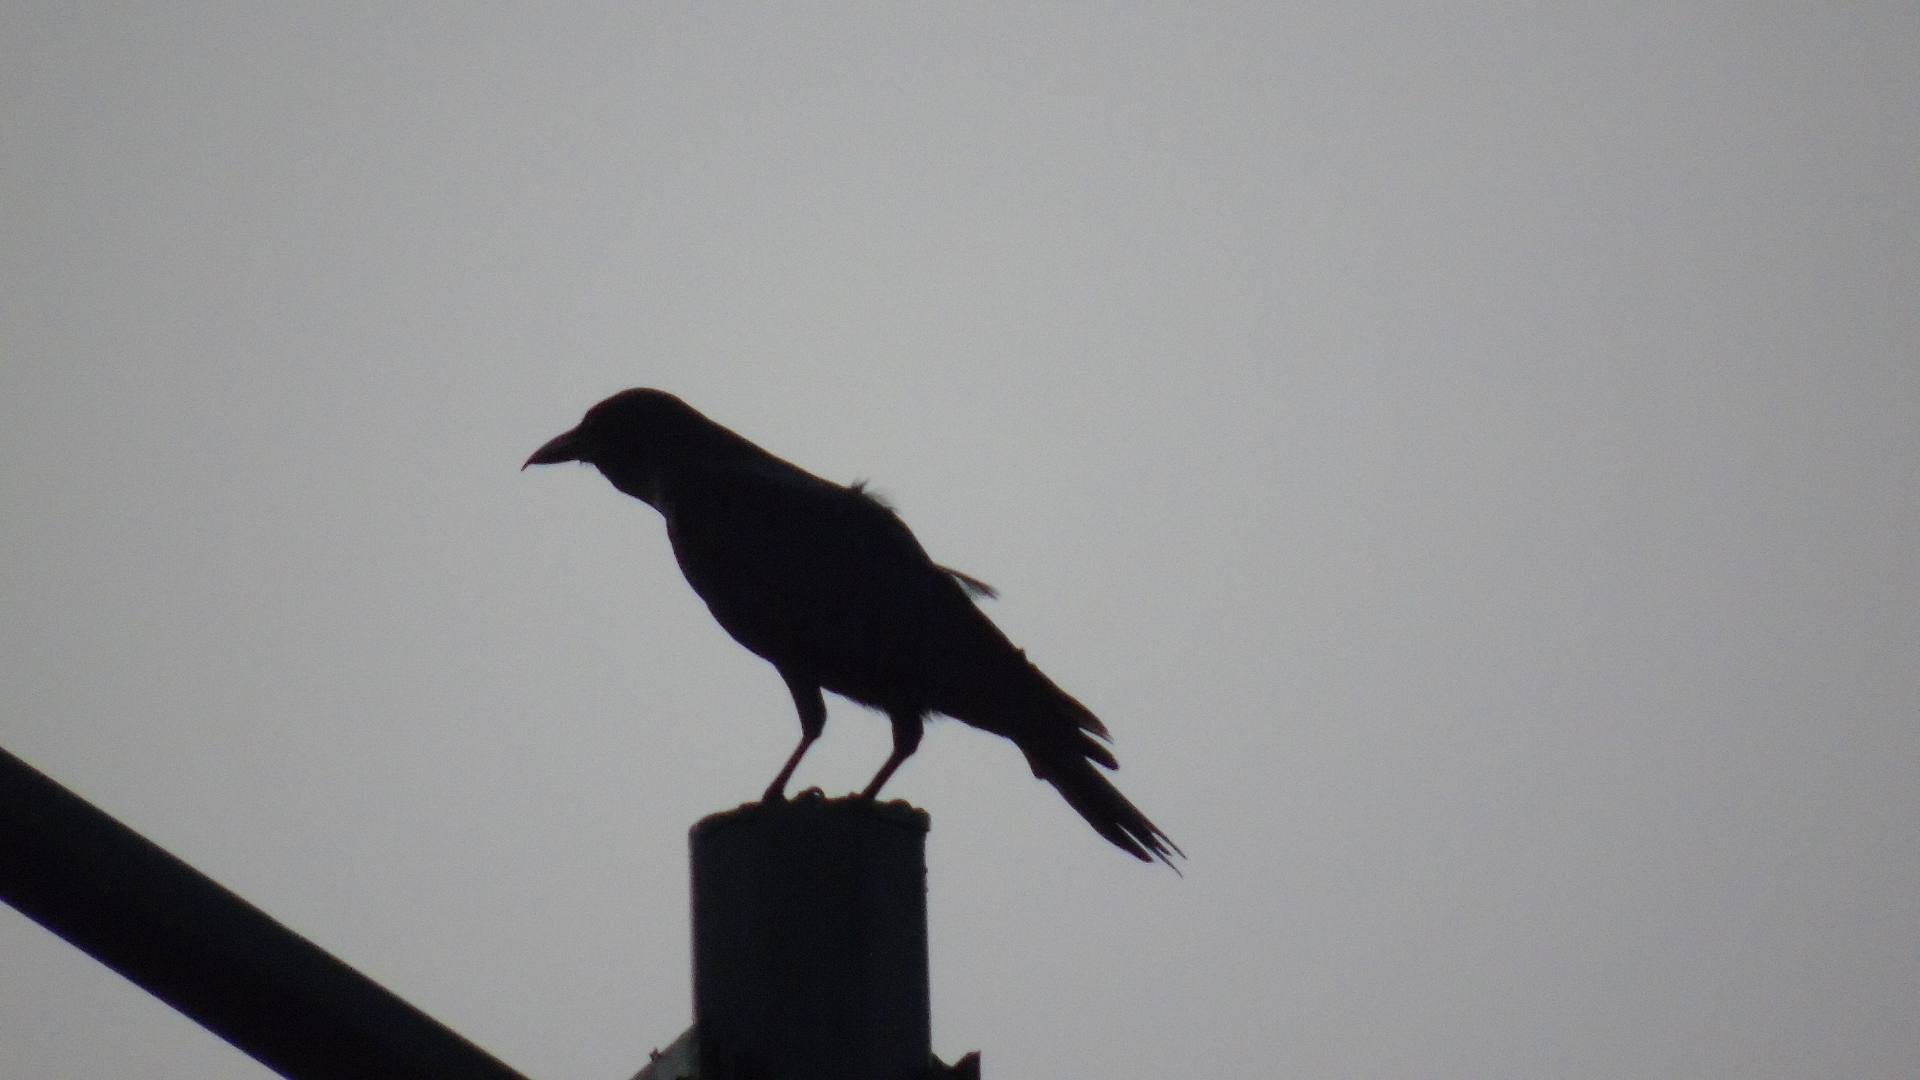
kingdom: Animalia
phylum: Chordata
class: Aves
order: Passeriformes
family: Corvidae
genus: Corvus
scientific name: Corvus sinaloae
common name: Sinaloa crow
